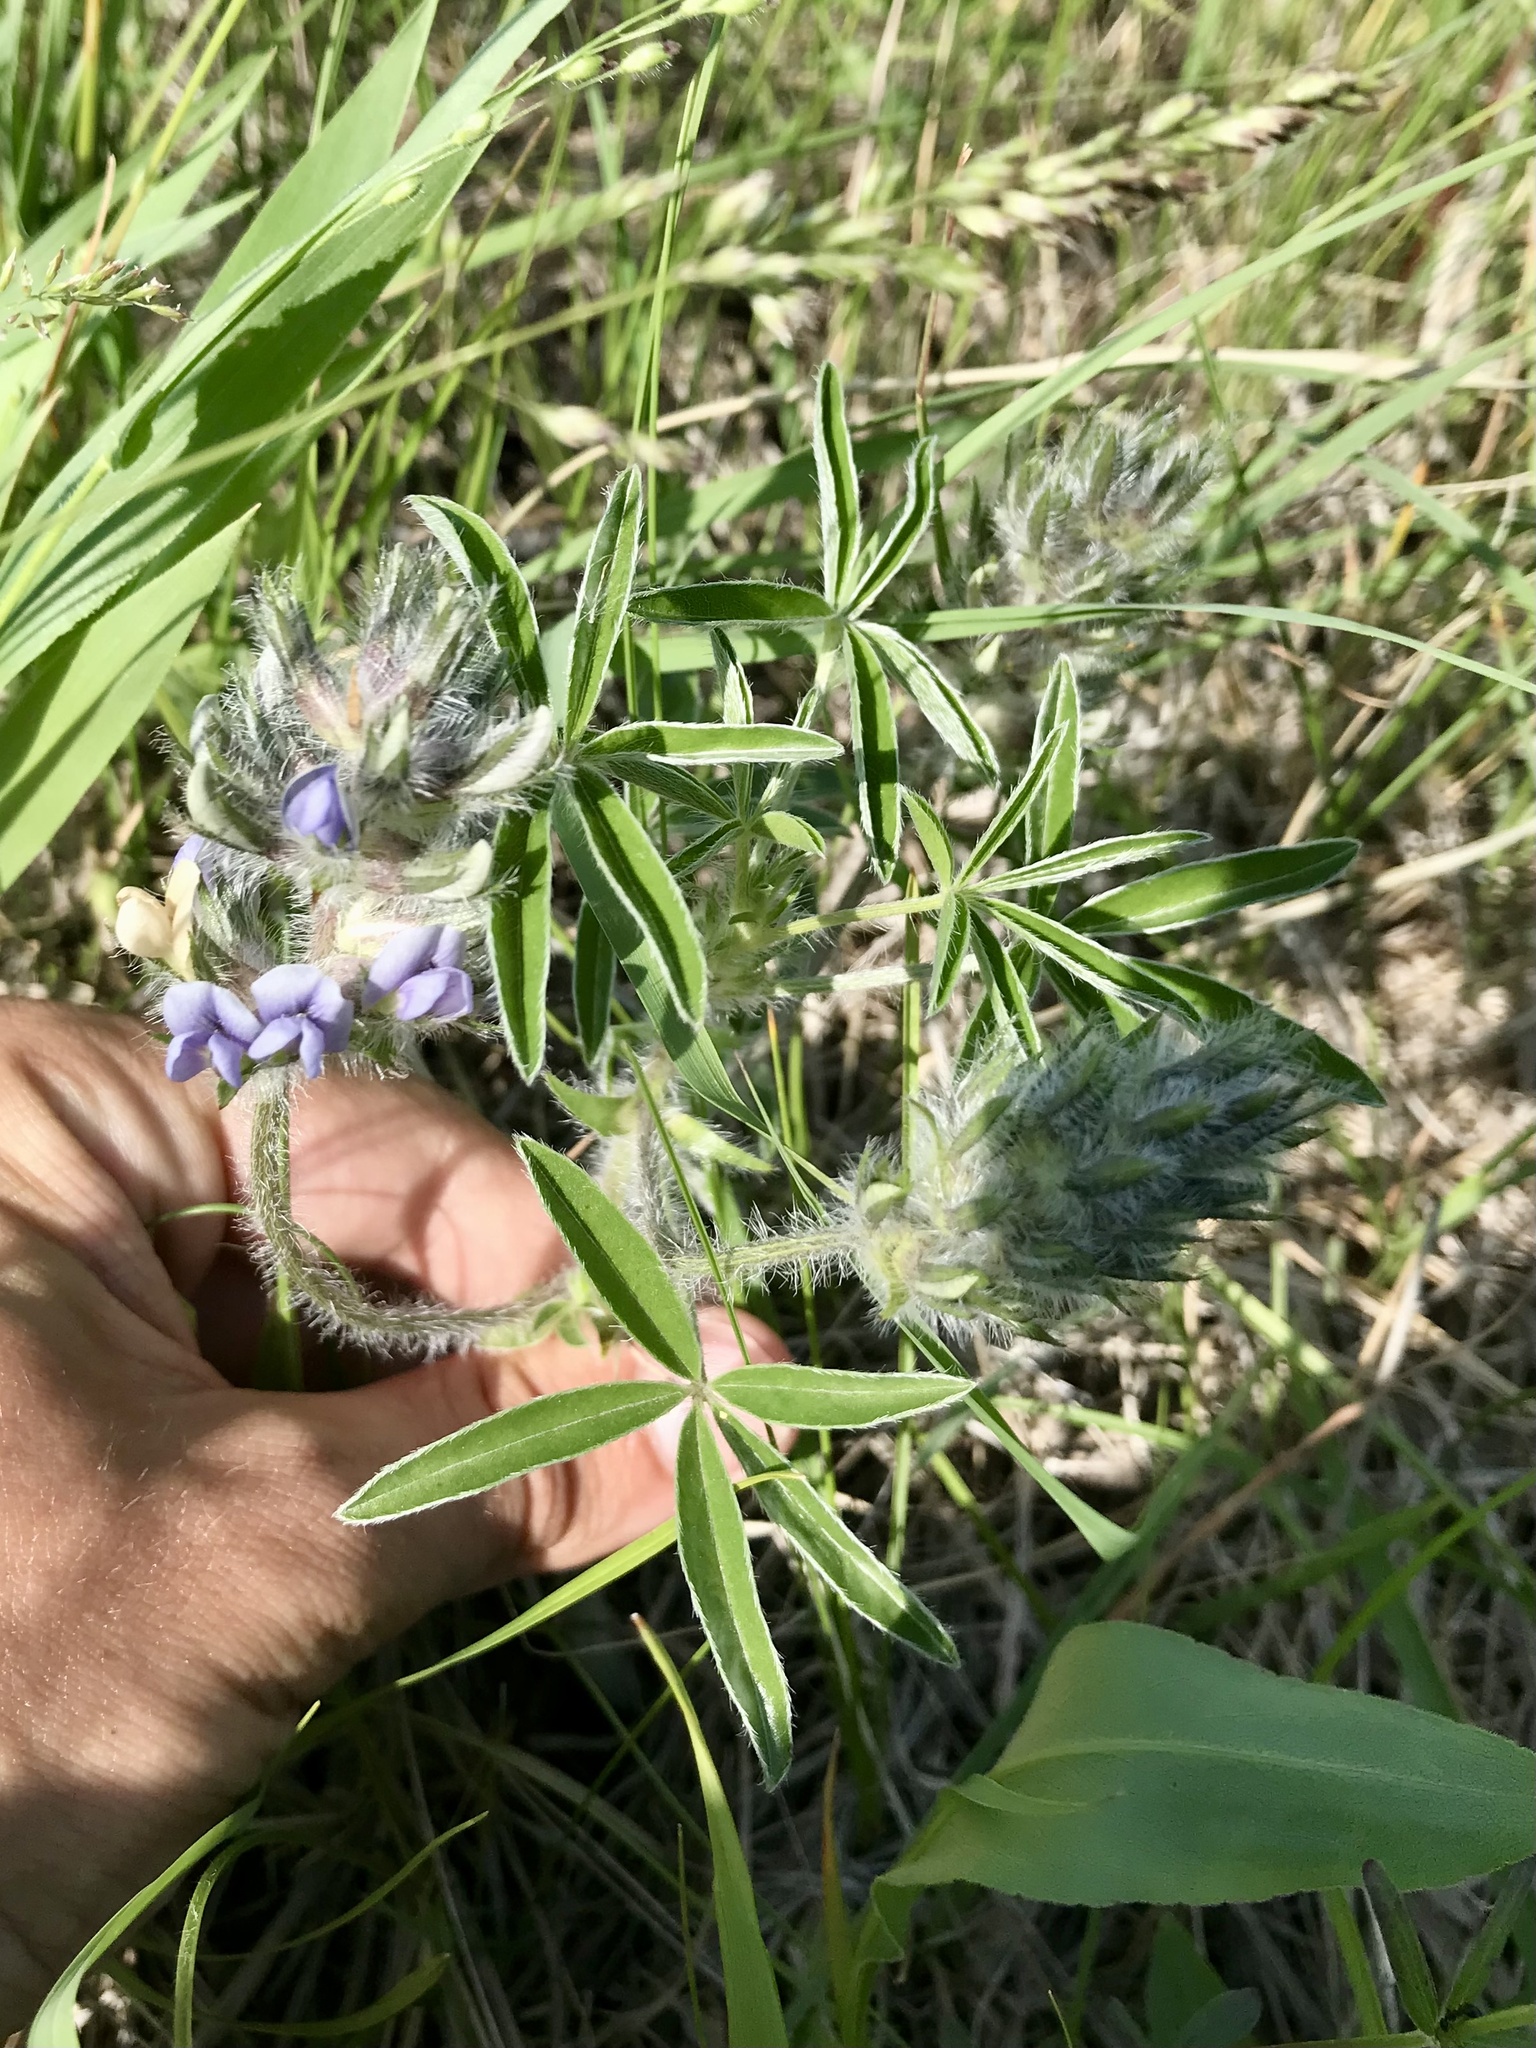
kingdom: Plantae
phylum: Tracheophyta
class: Magnoliopsida
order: Fabales
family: Fabaceae
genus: Pediomelum
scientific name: Pediomelum esculentum
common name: Indian-turnip
